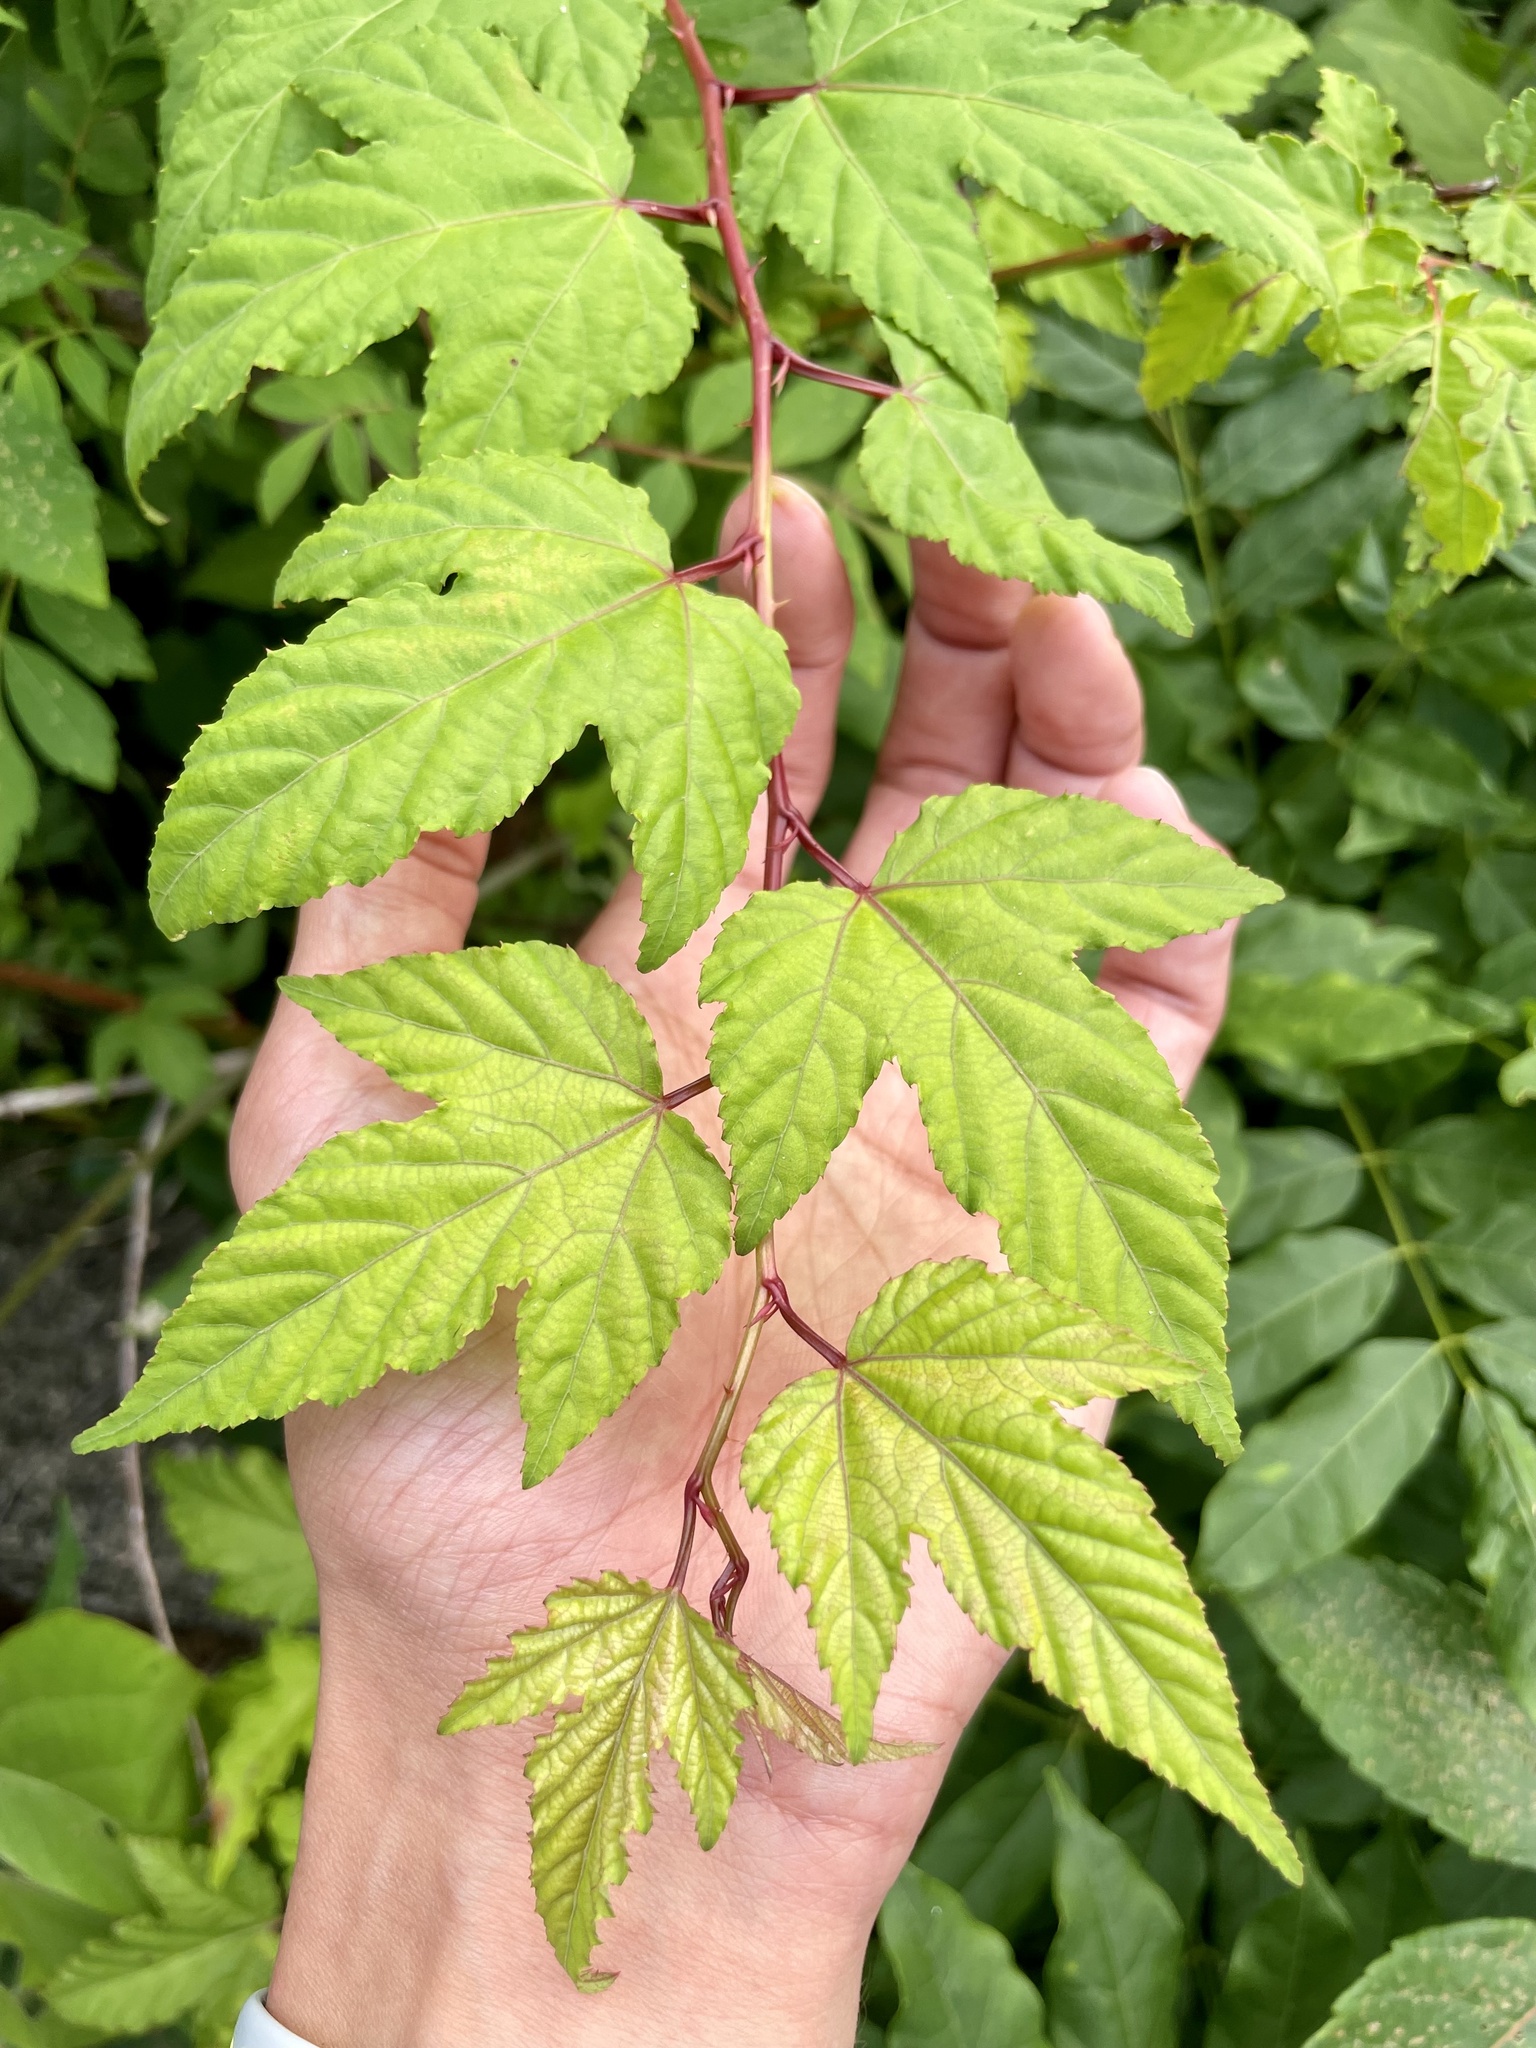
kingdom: Plantae
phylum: Tracheophyta
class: Magnoliopsida
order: Rosales
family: Rosaceae
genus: Rubus
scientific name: Rubus subcrataegifolius
